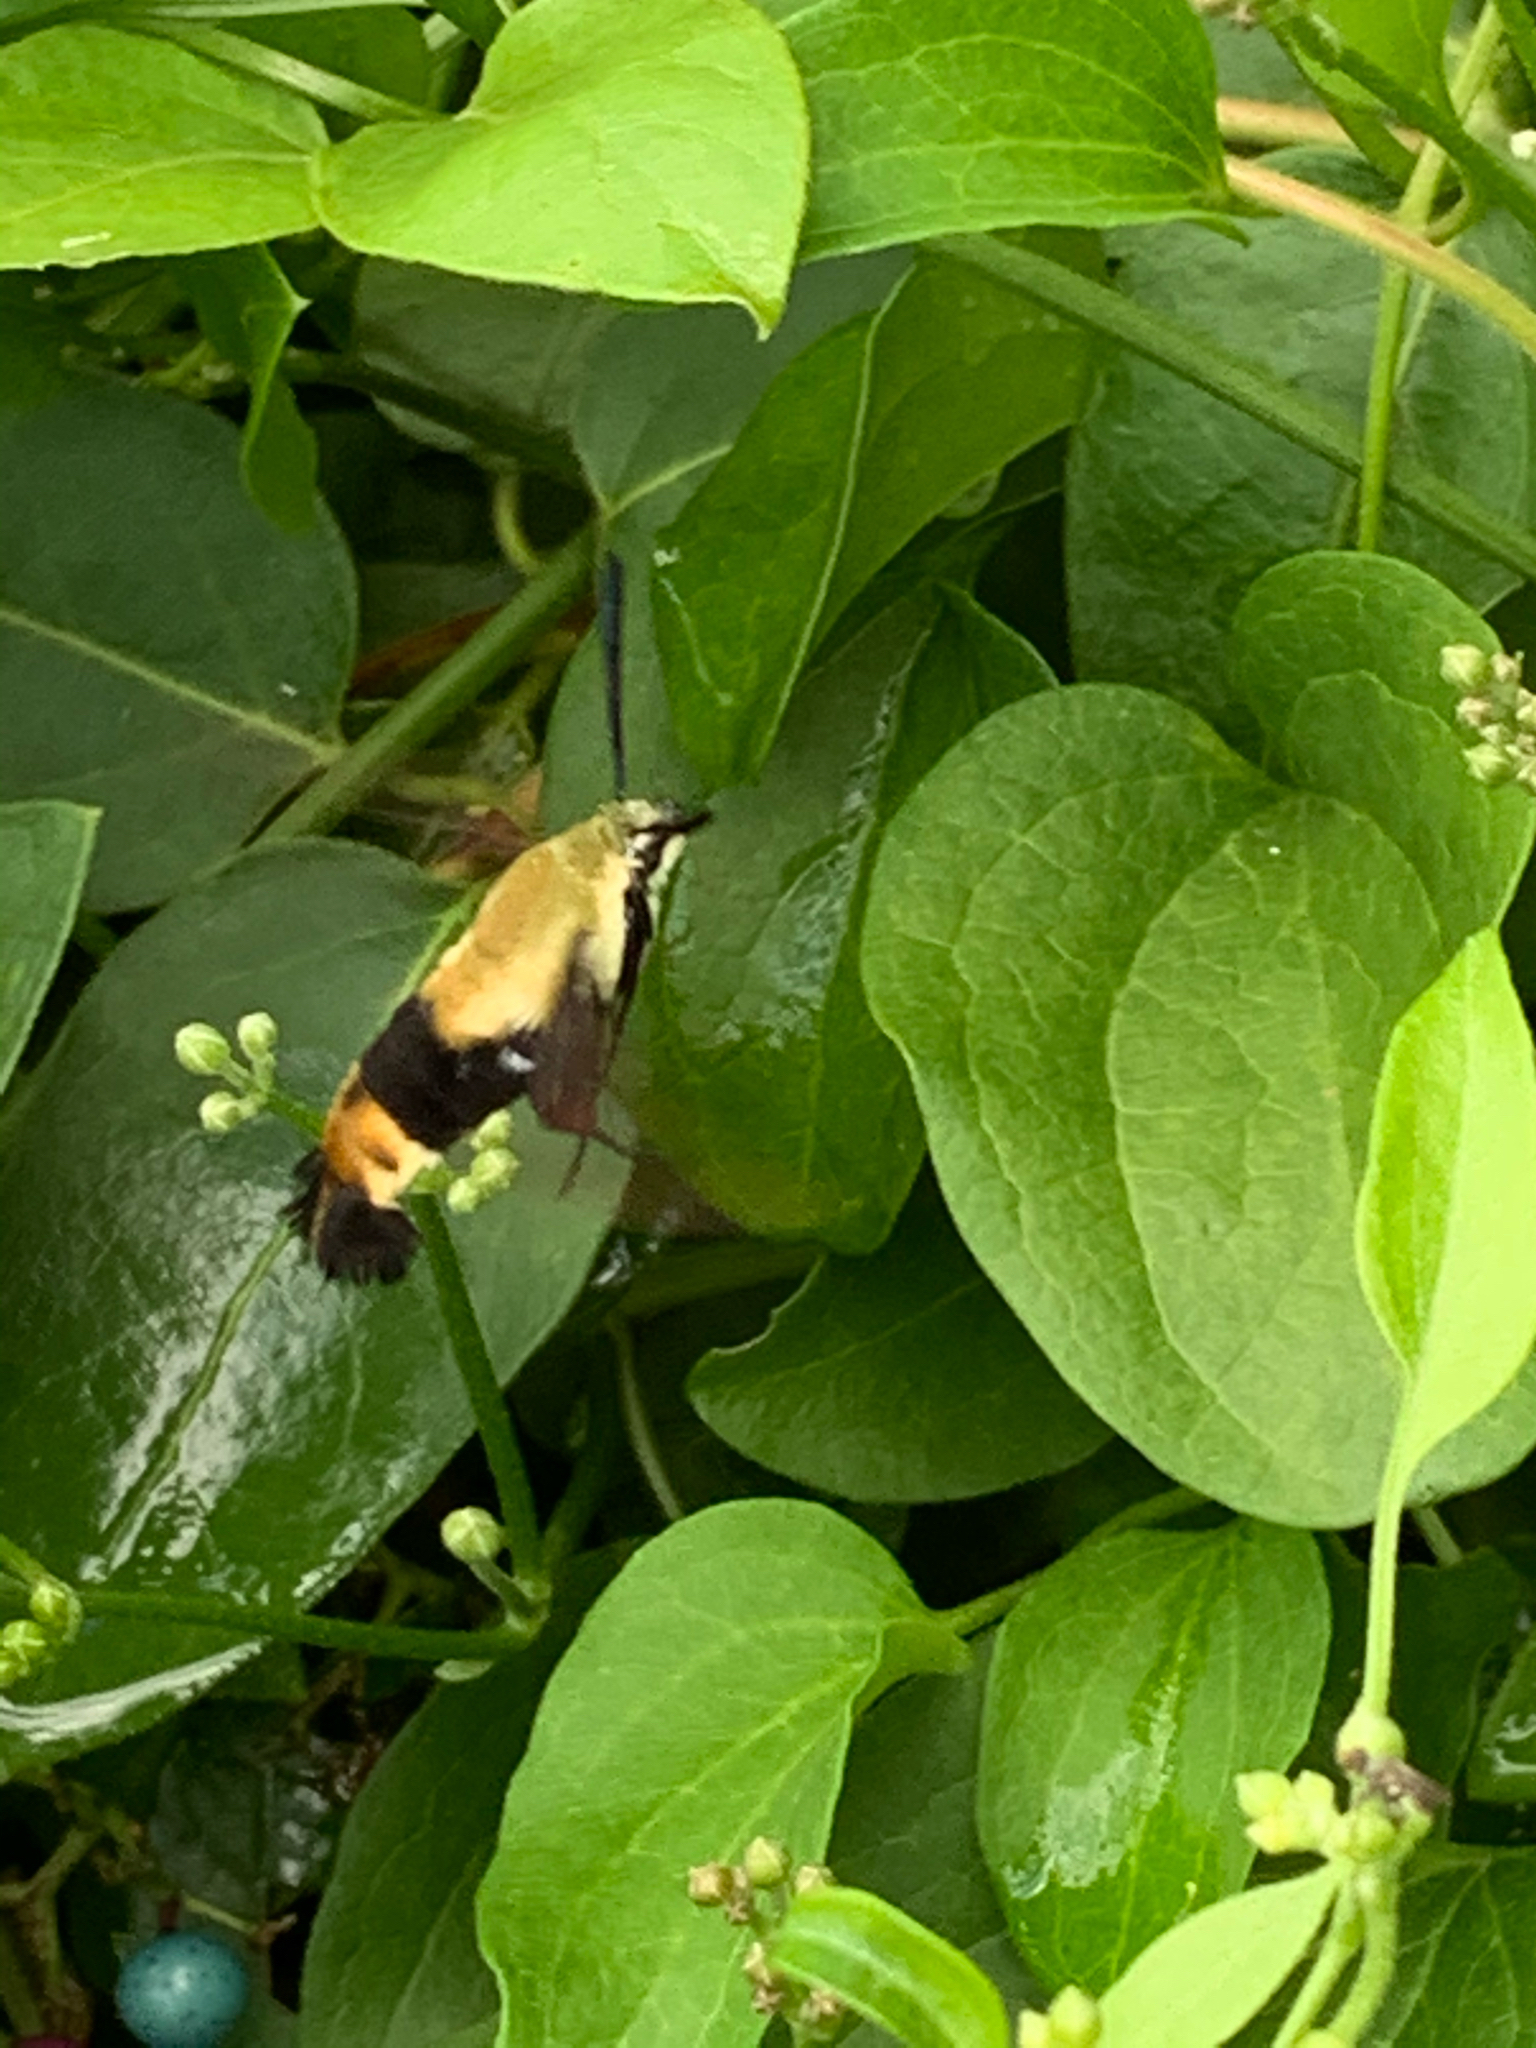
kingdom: Animalia
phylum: Arthropoda
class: Insecta
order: Lepidoptera
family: Sphingidae
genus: Hemaris
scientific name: Hemaris diffinis
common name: Bumblebee moth
